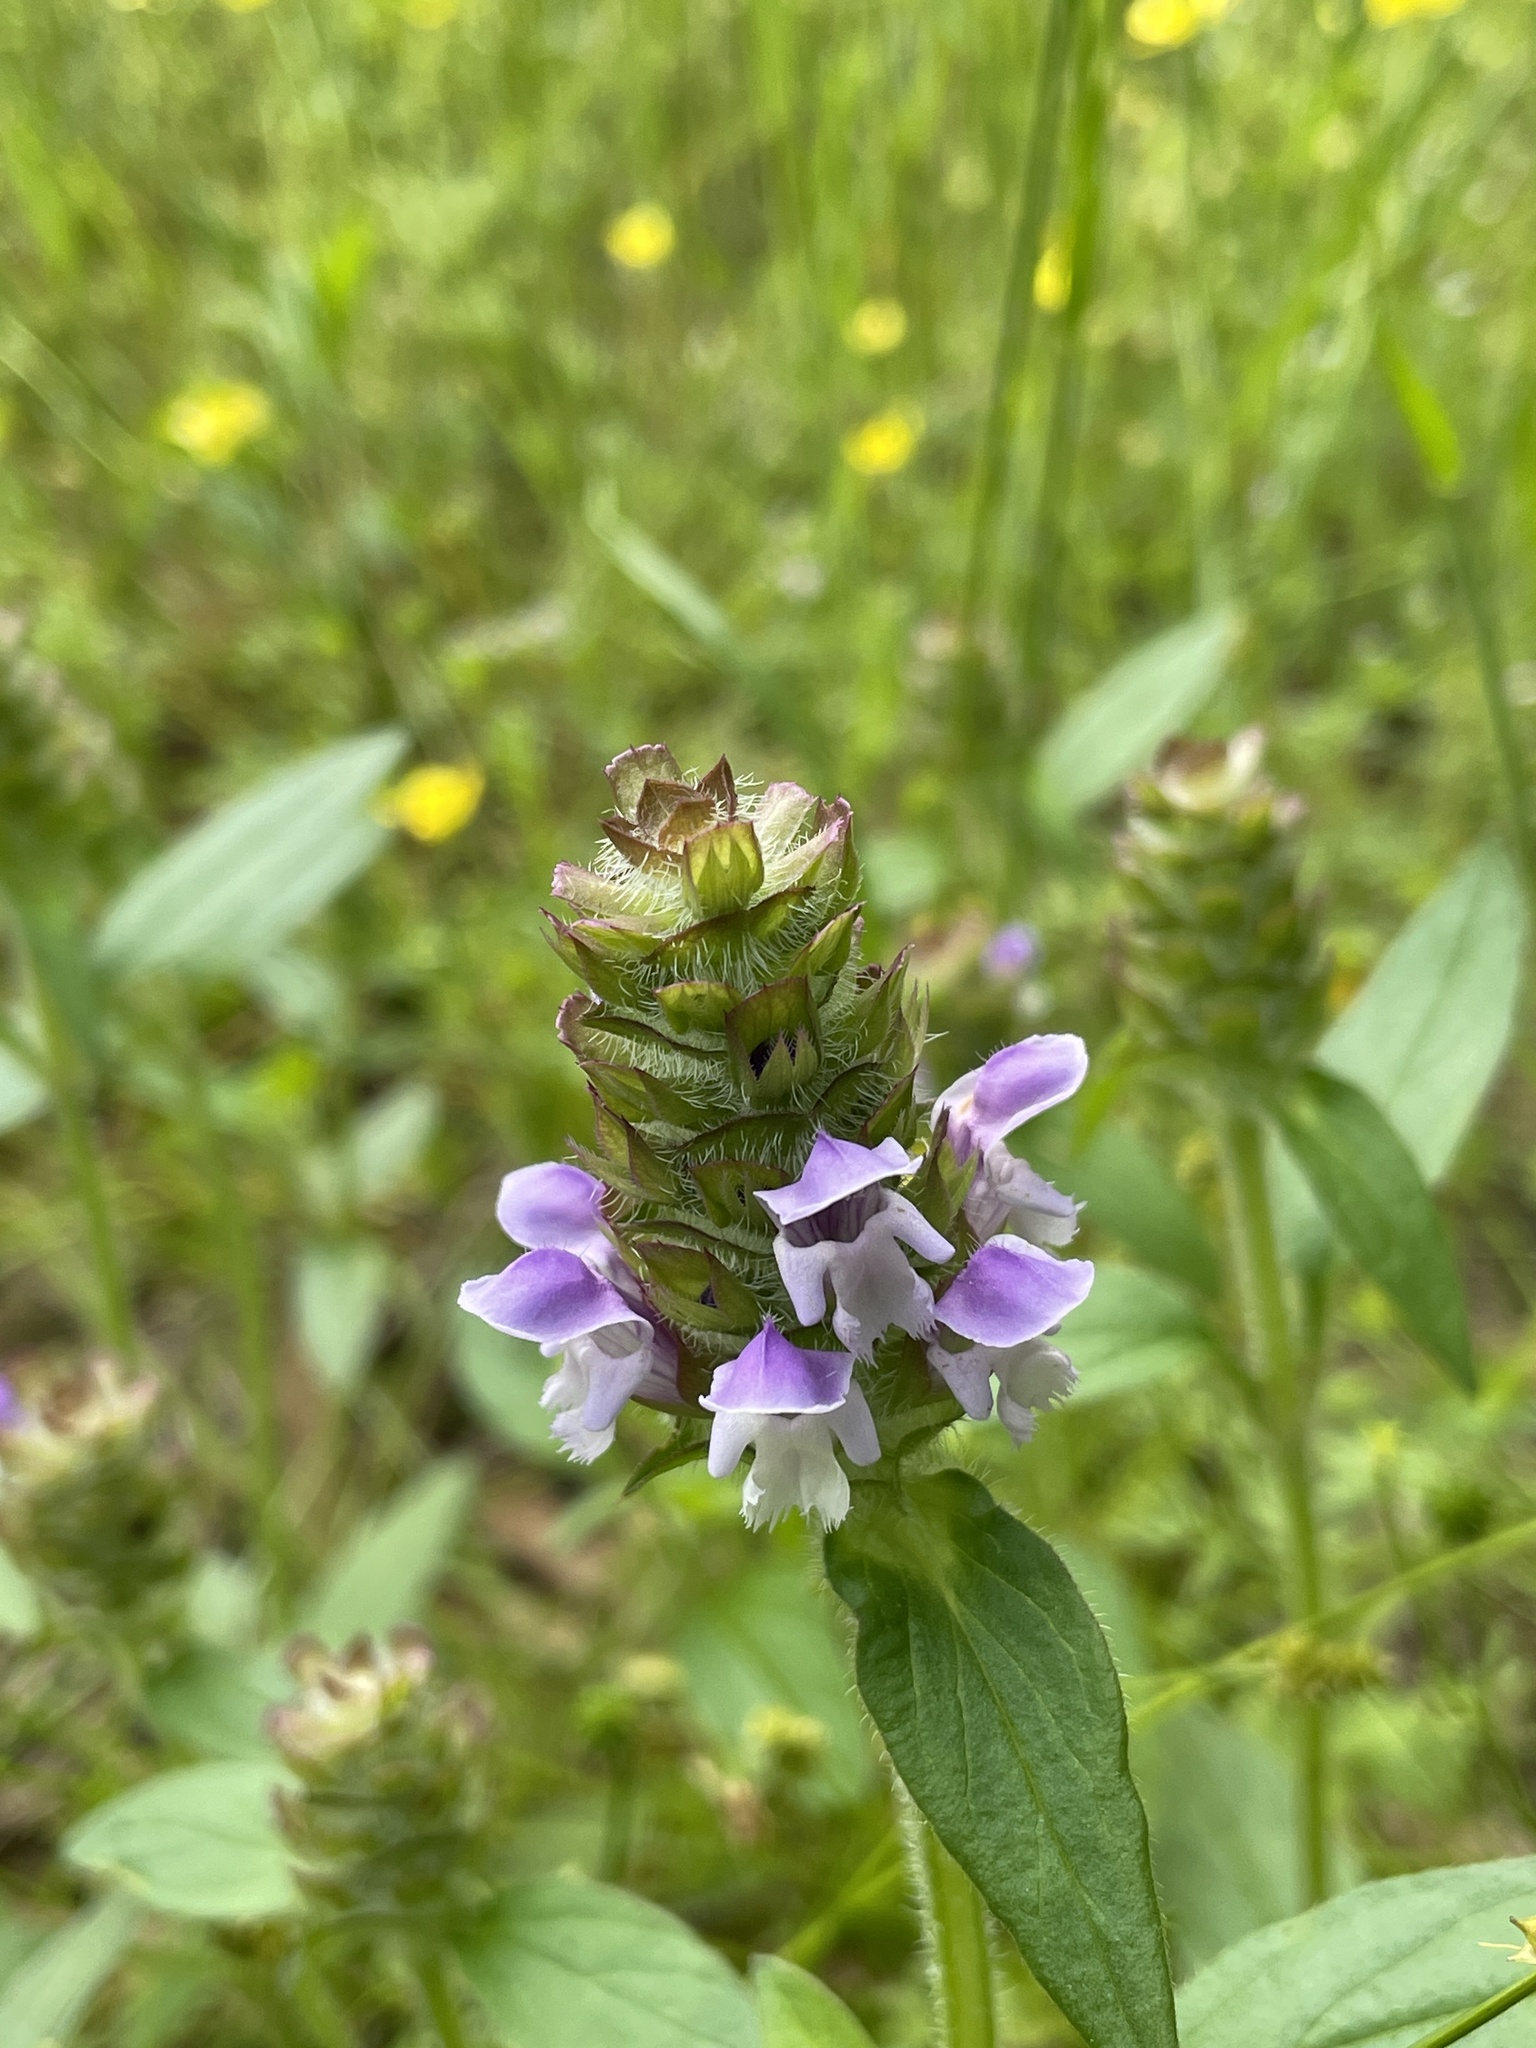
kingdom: Plantae
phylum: Tracheophyta
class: Magnoliopsida
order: Lamiales
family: Lamiaceae
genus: Prunella
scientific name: Prunella vulgaris
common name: Heal-all
